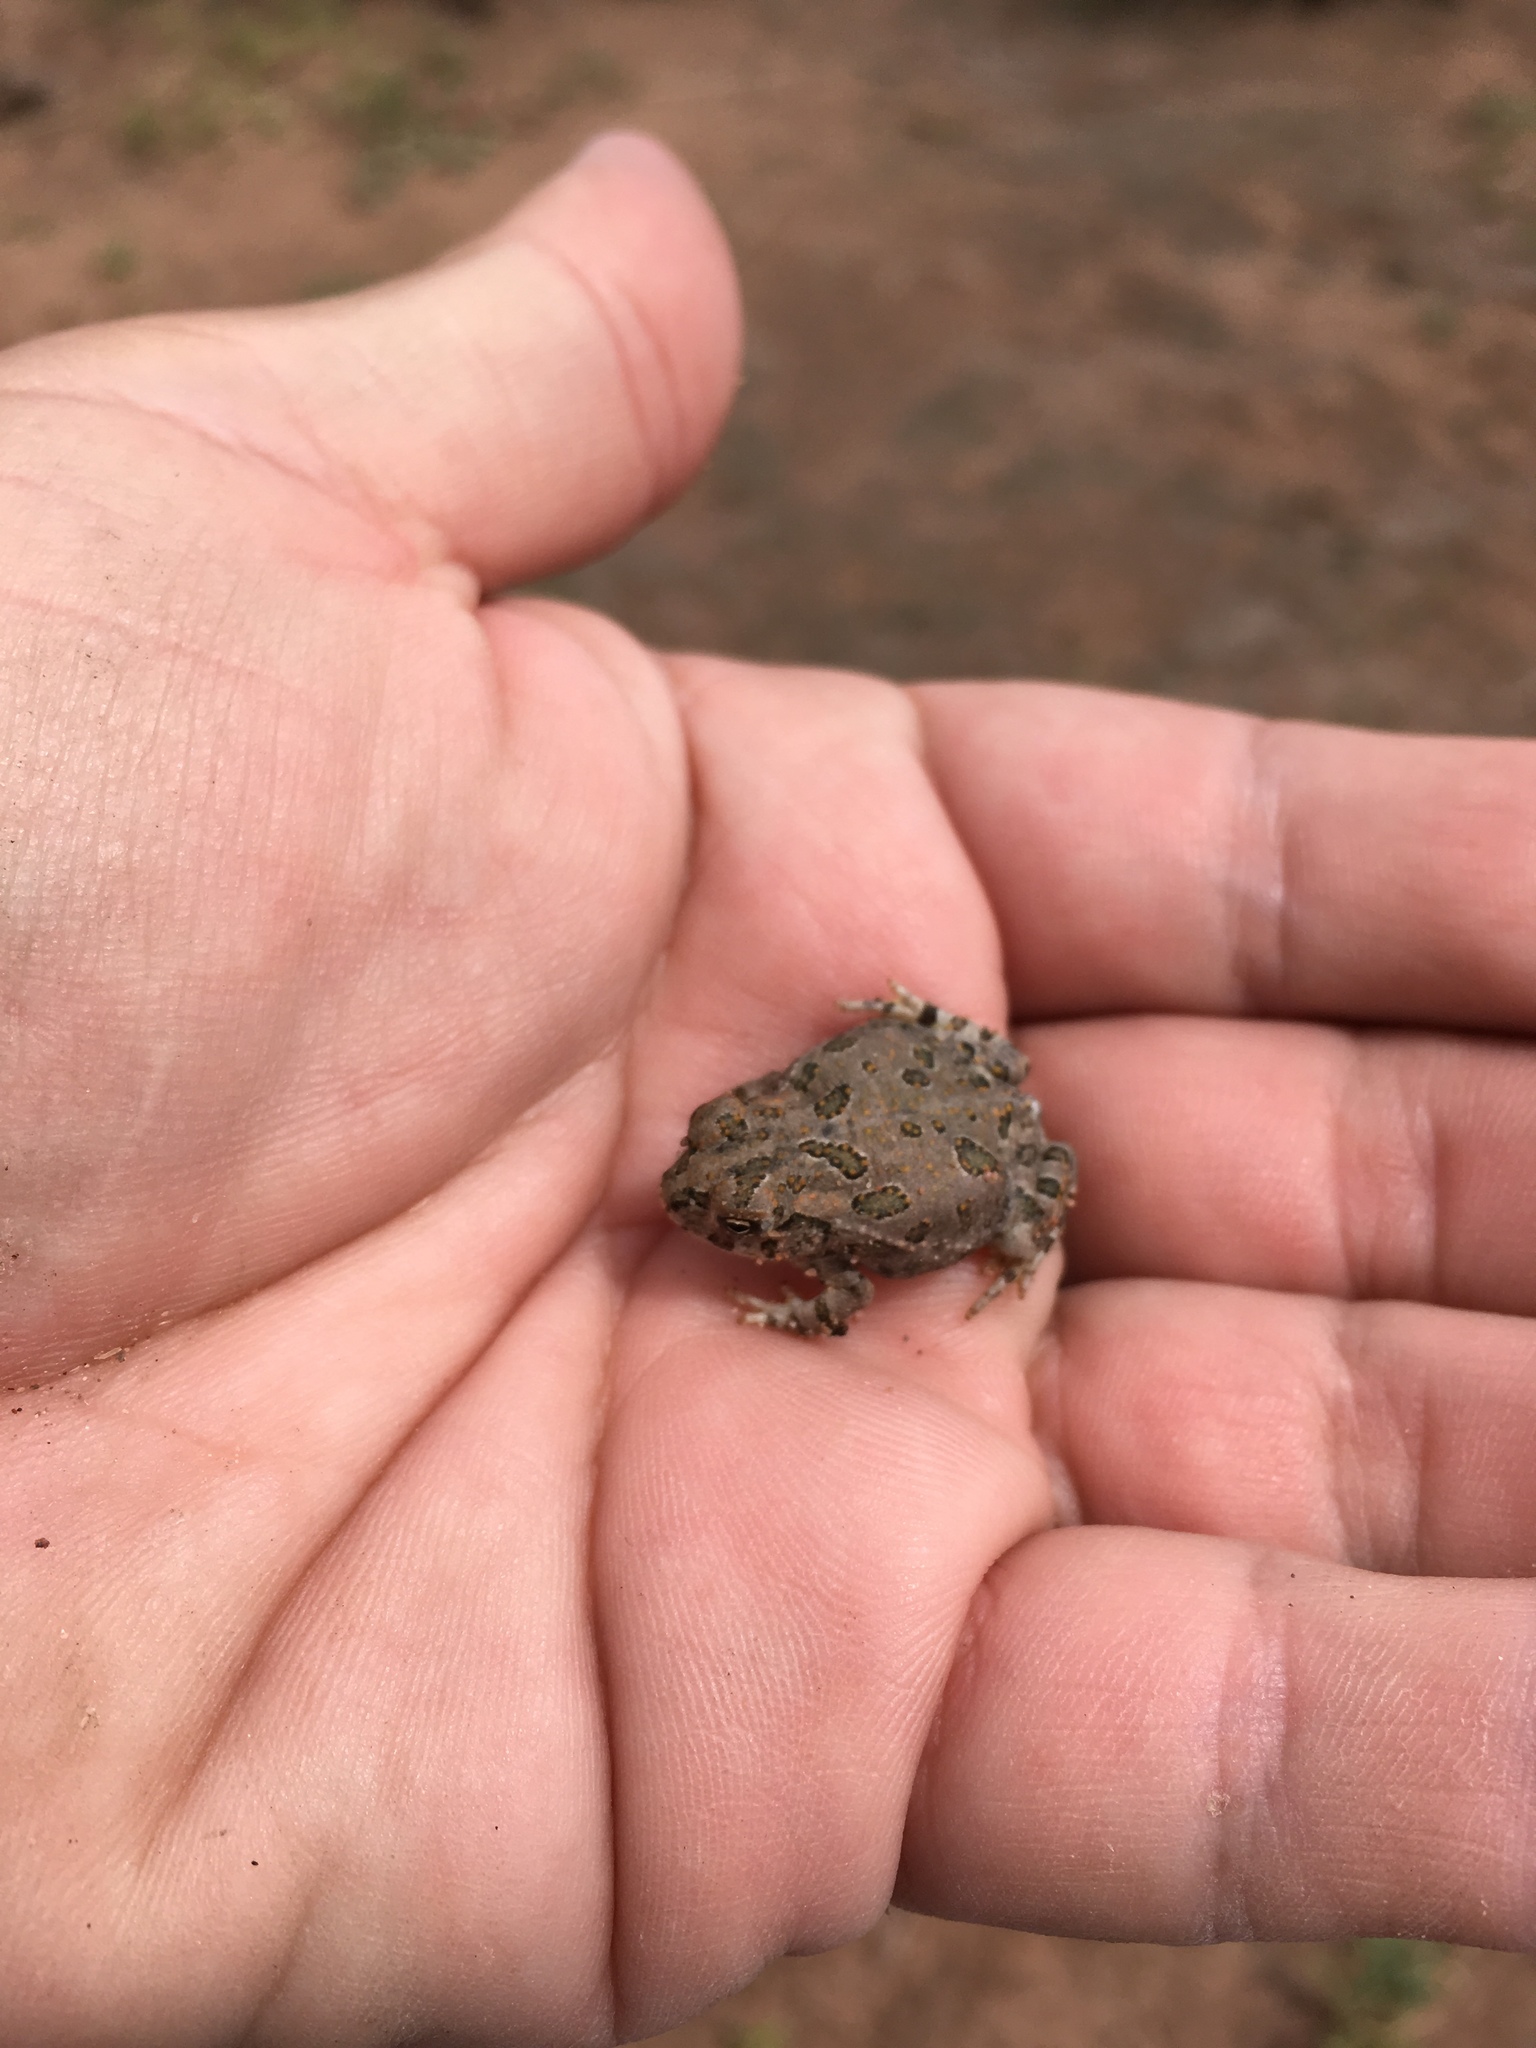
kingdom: Animalia
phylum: Chordata
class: Amphibia
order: Anura
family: Bufonidae
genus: Anaxyrus
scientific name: Anaxyrus cognatus
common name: Great plains toad
